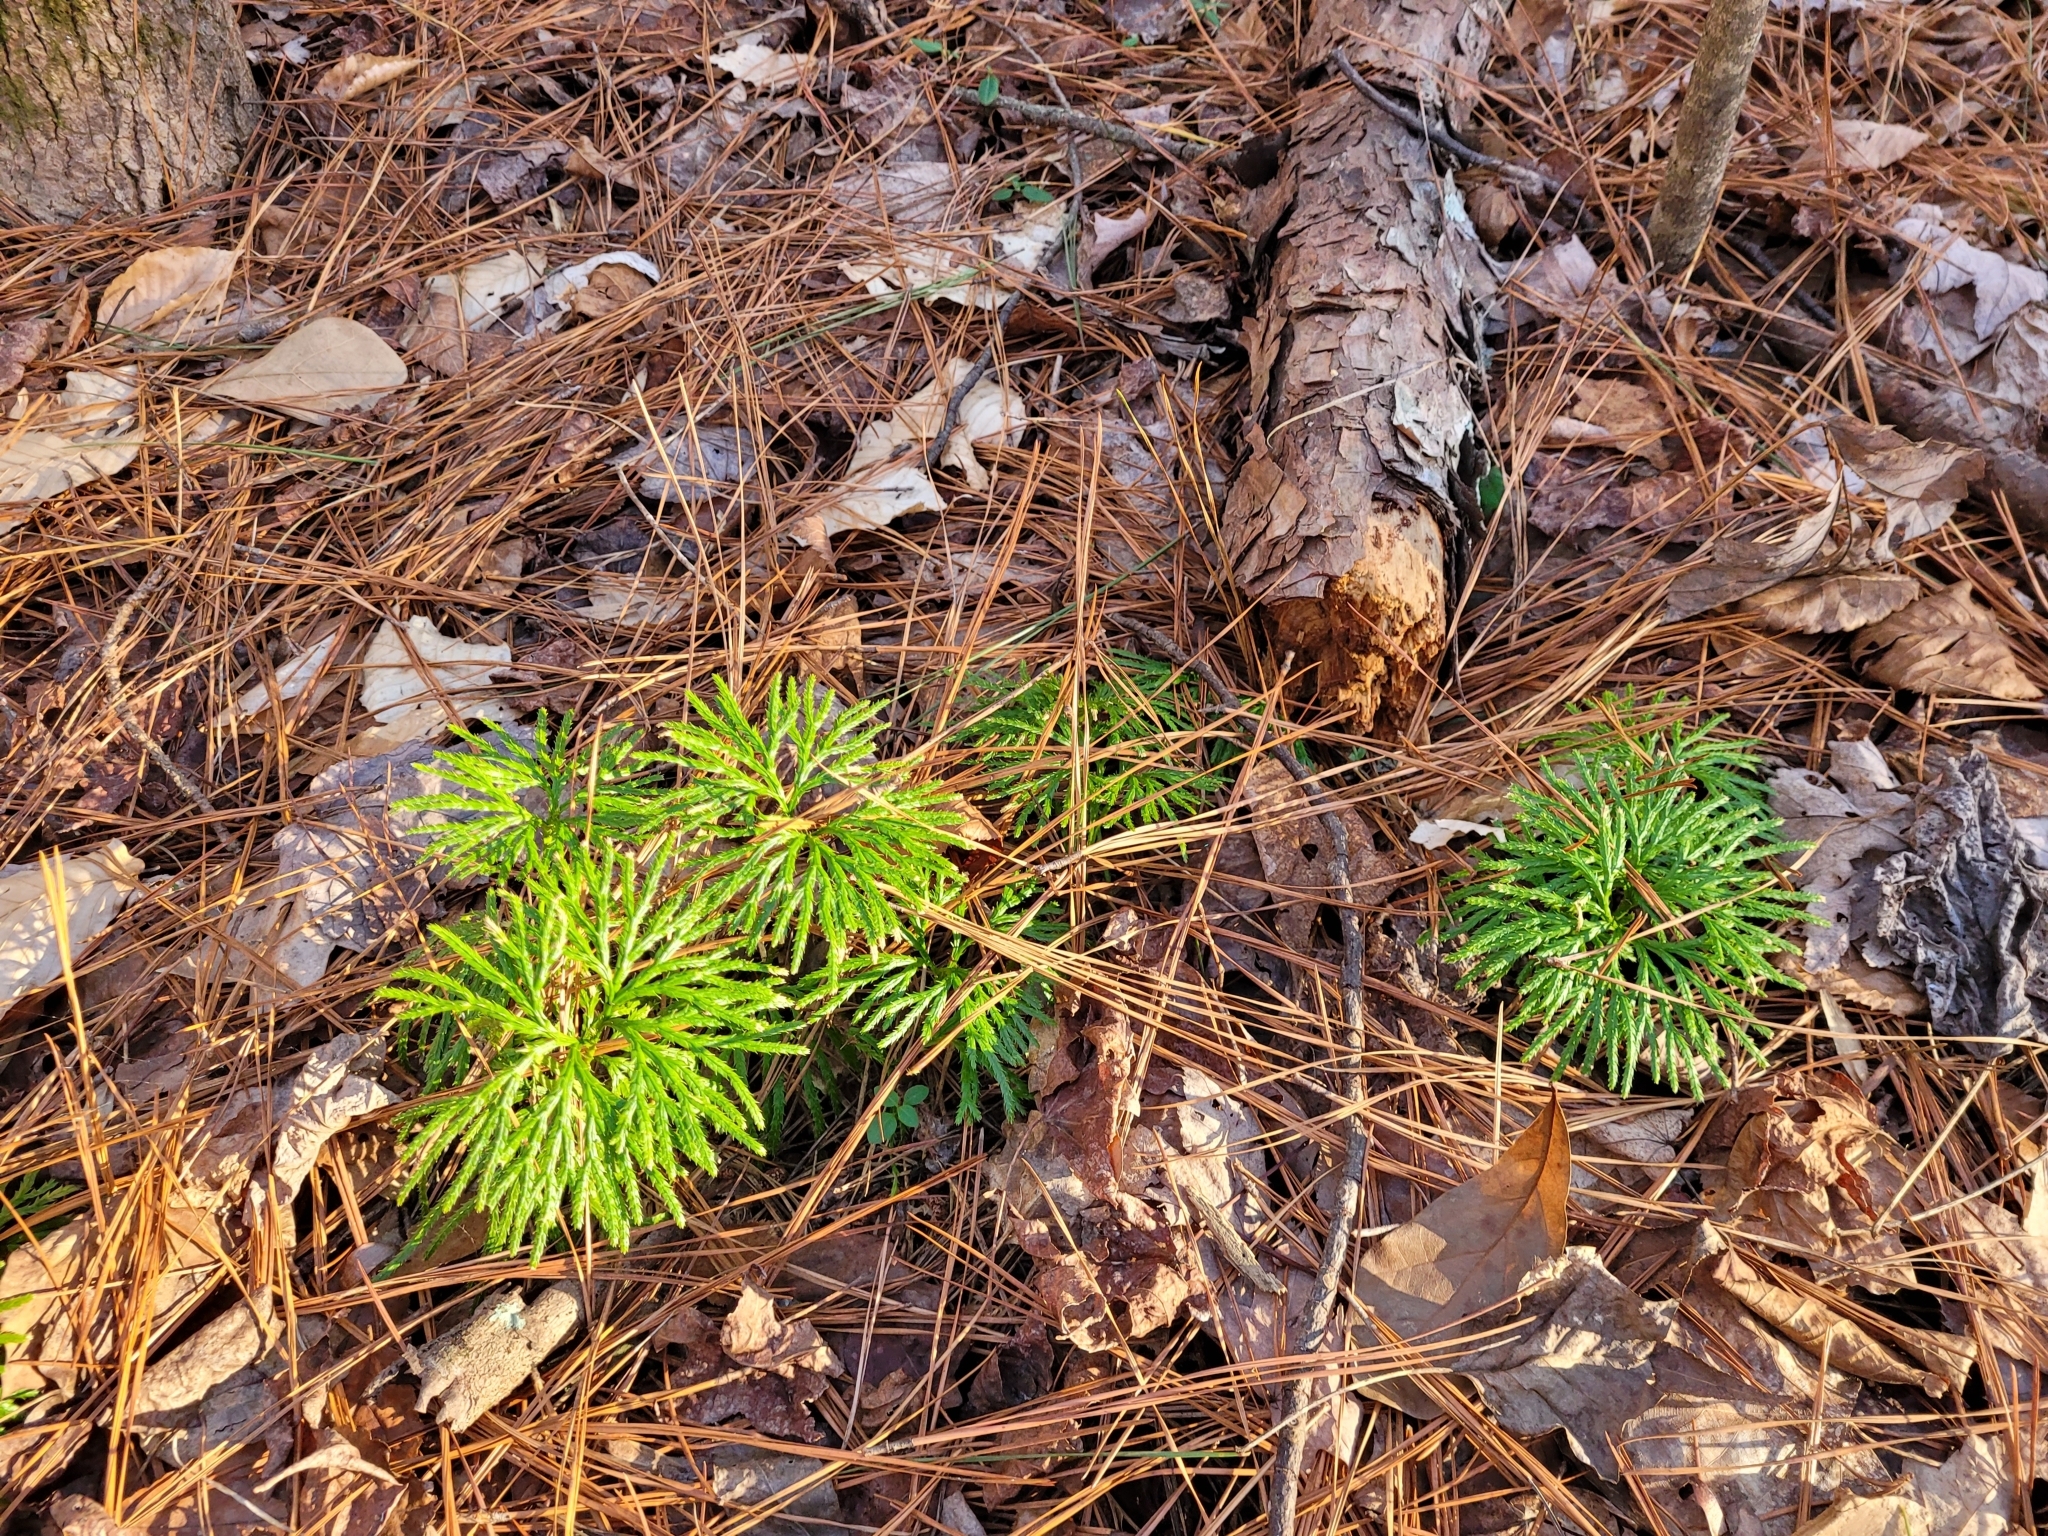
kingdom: Plantae
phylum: Tracheophyta
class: Lycopodiopsida
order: Lycopodiales
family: Lycopodiaceae
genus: Diphasiastrum
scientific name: Diphasiastrum digitatum
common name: Southern running-pine
